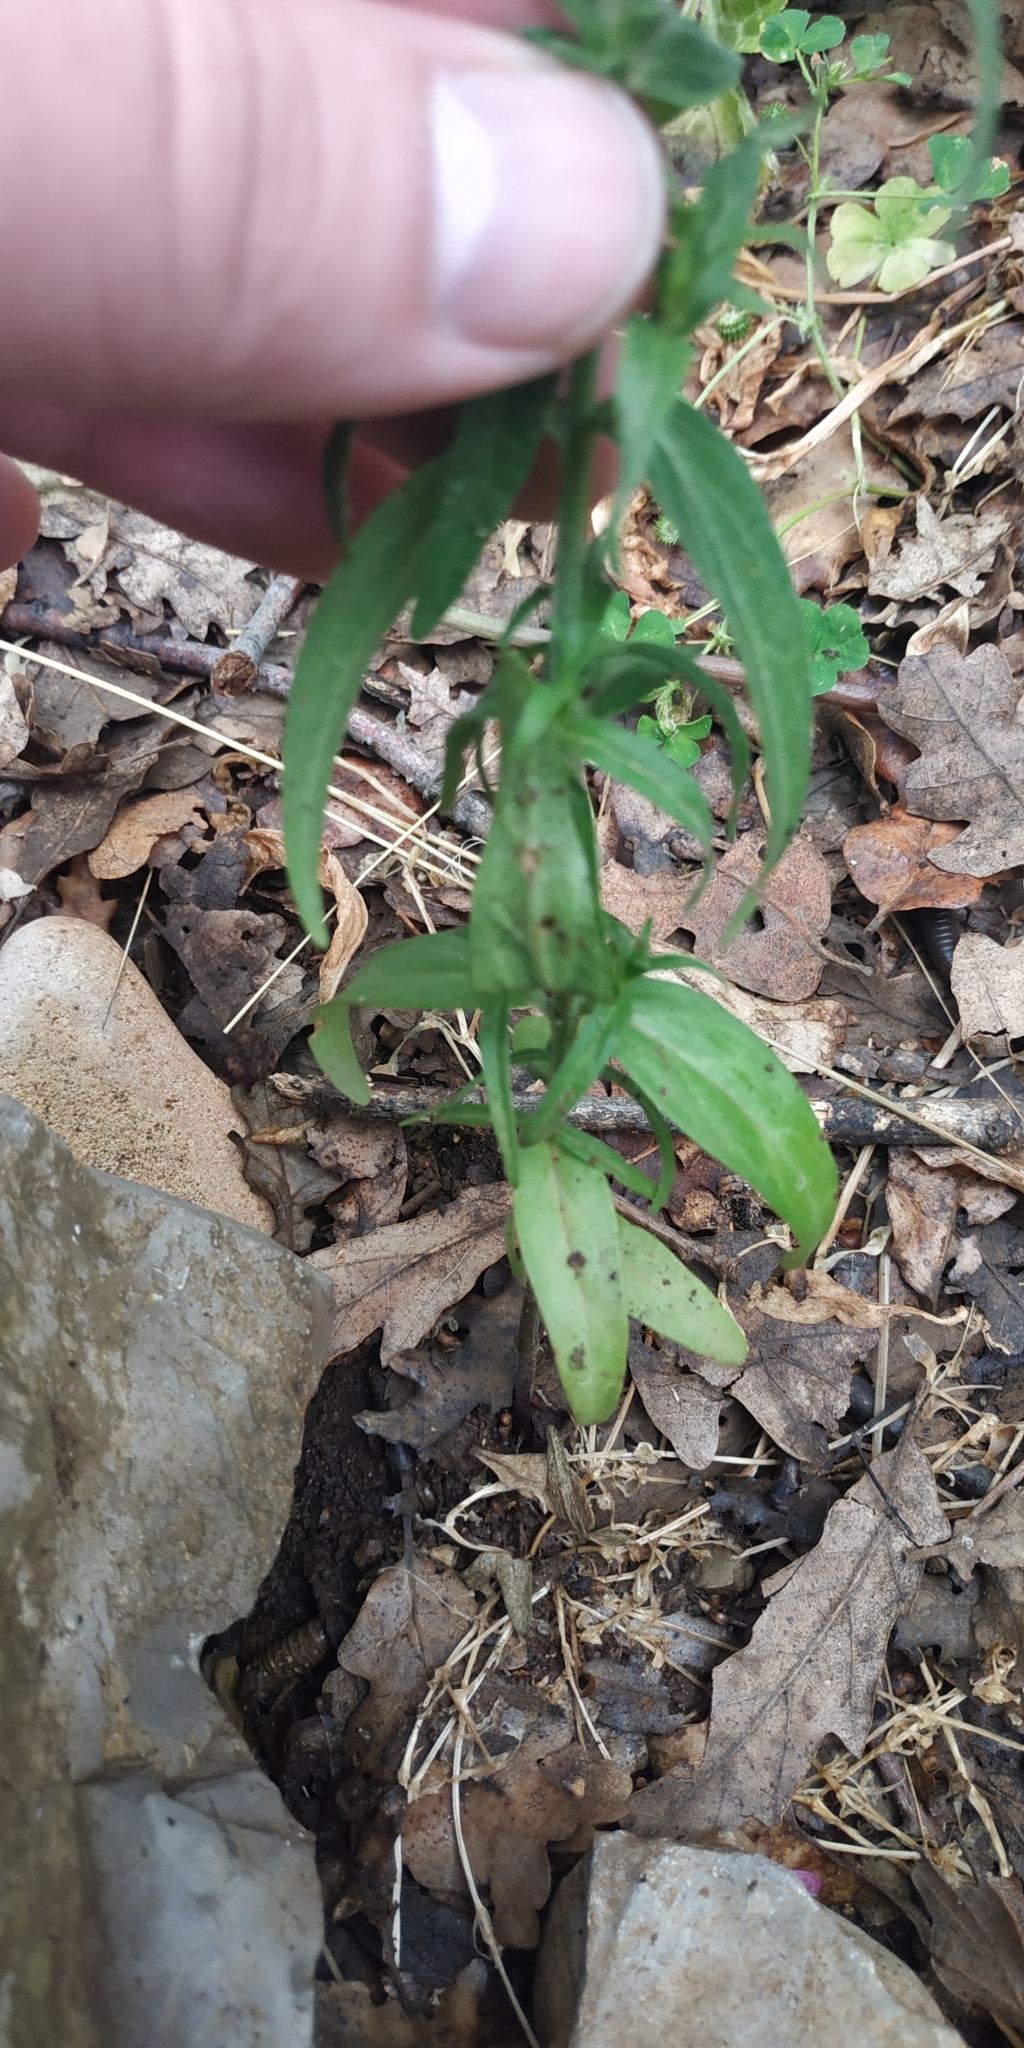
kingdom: Plantae
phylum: Tracheophyta
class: Magnoliopsida
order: Lamiales
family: Orobanchaceae
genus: Melampyrum
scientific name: Melampyrum arvense
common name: Field cow-wheat
